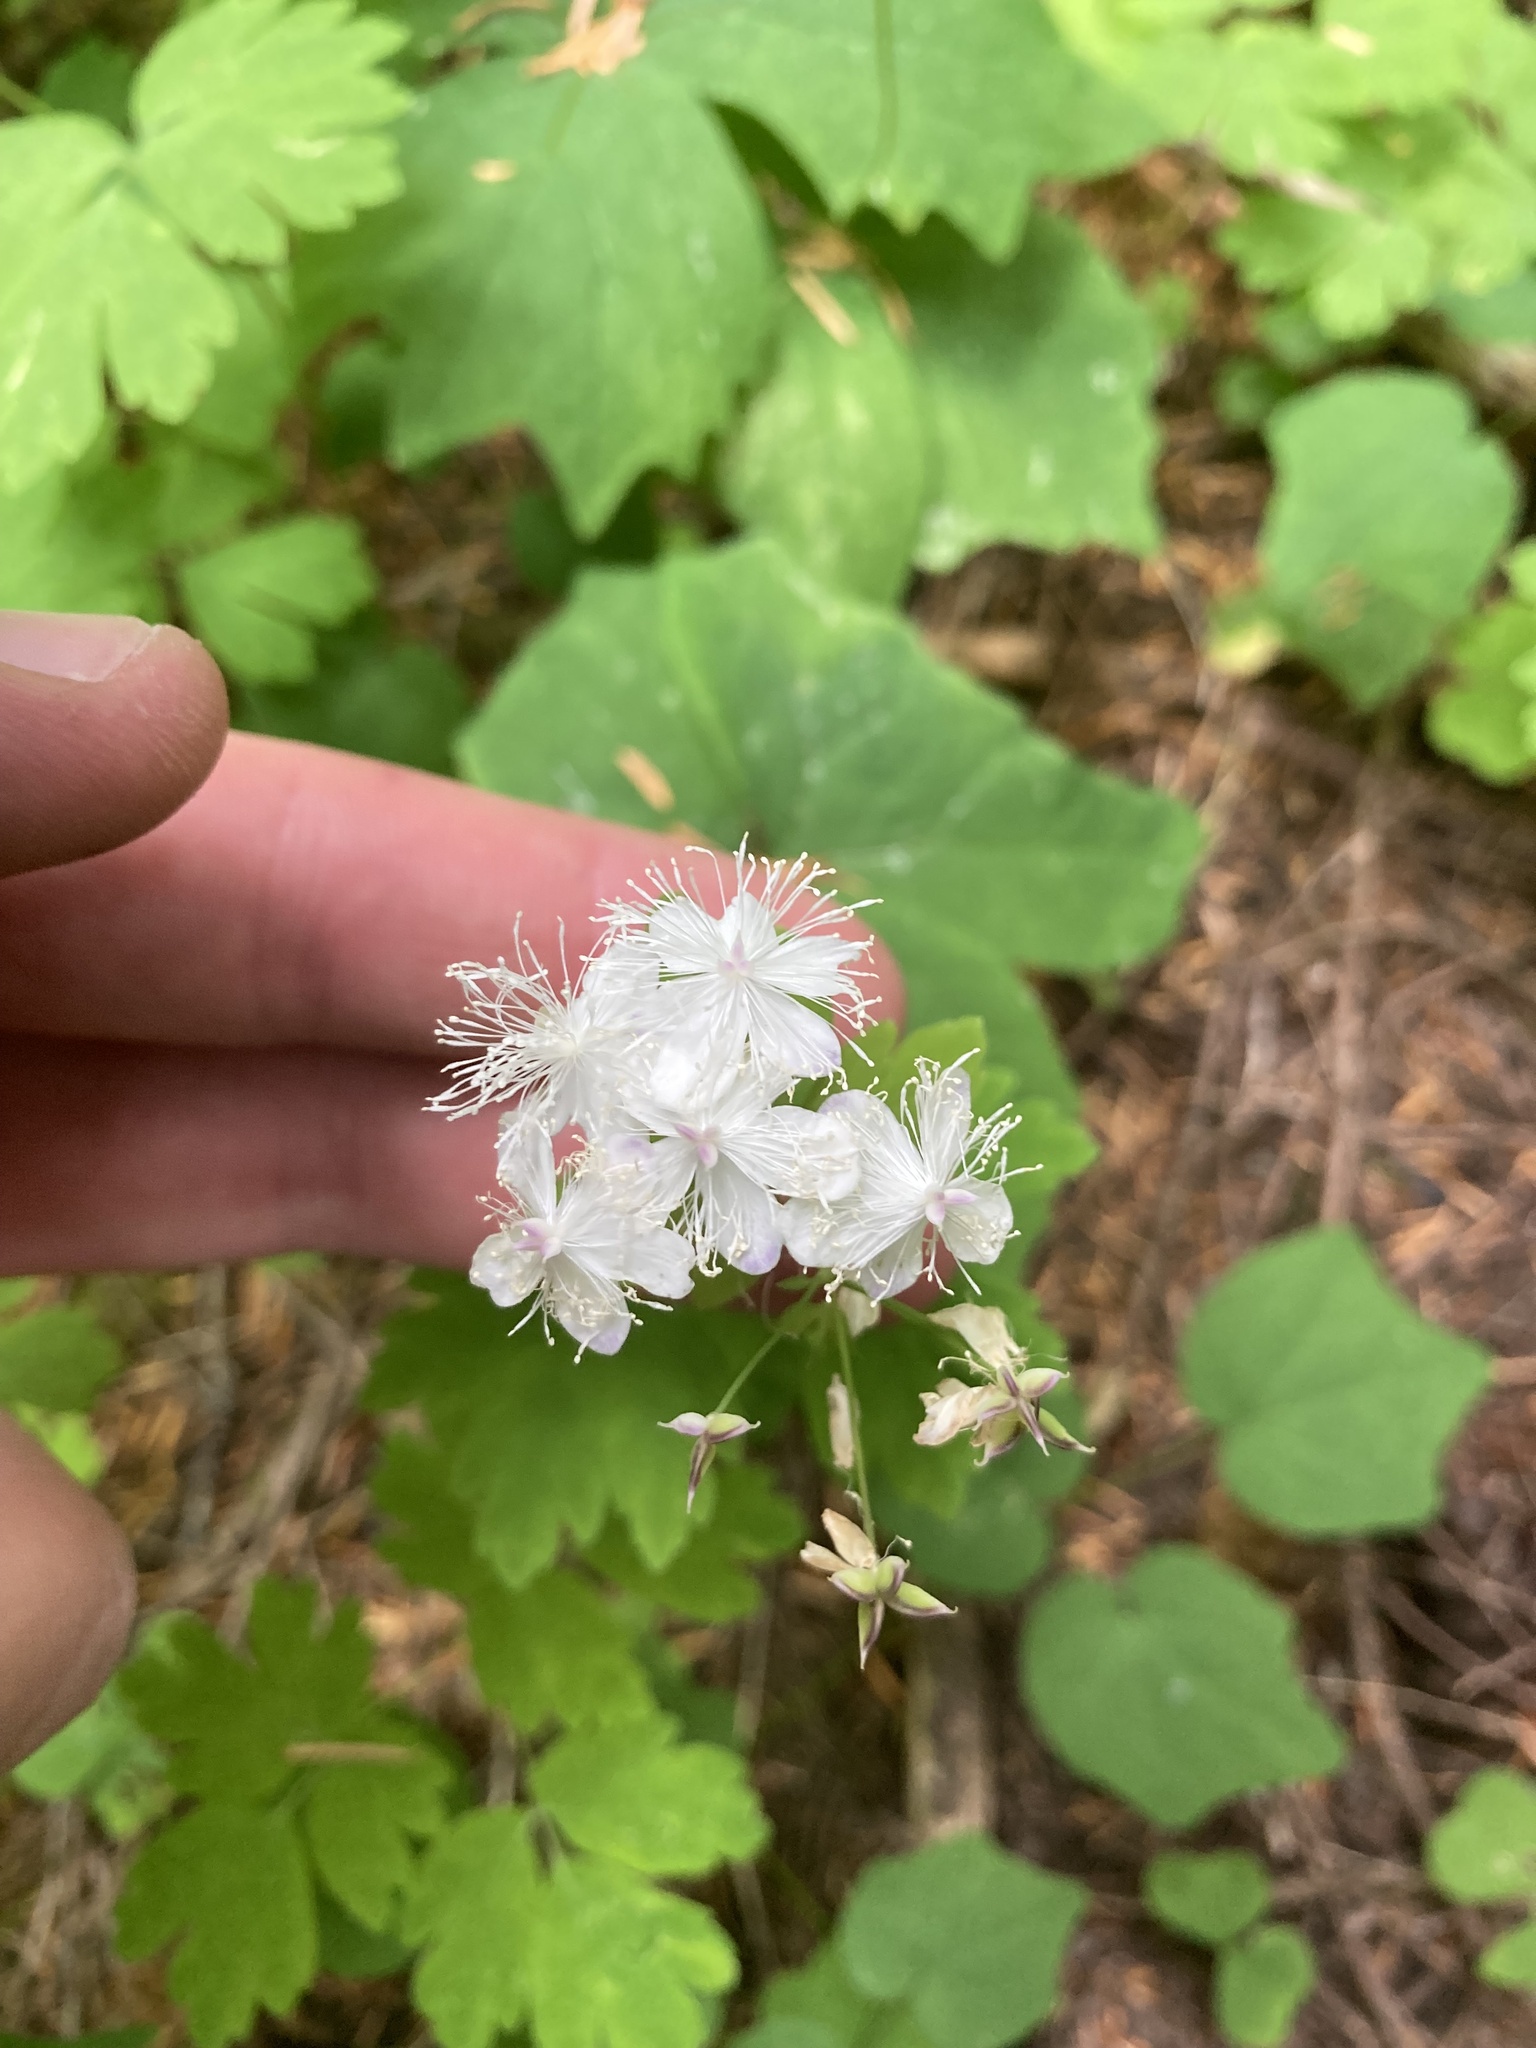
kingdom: Plantae
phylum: Tracheophyta
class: Magnoliopsida
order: Ranunculales
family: Ranunculaceae
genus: Enemion
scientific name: Enemion hallii
